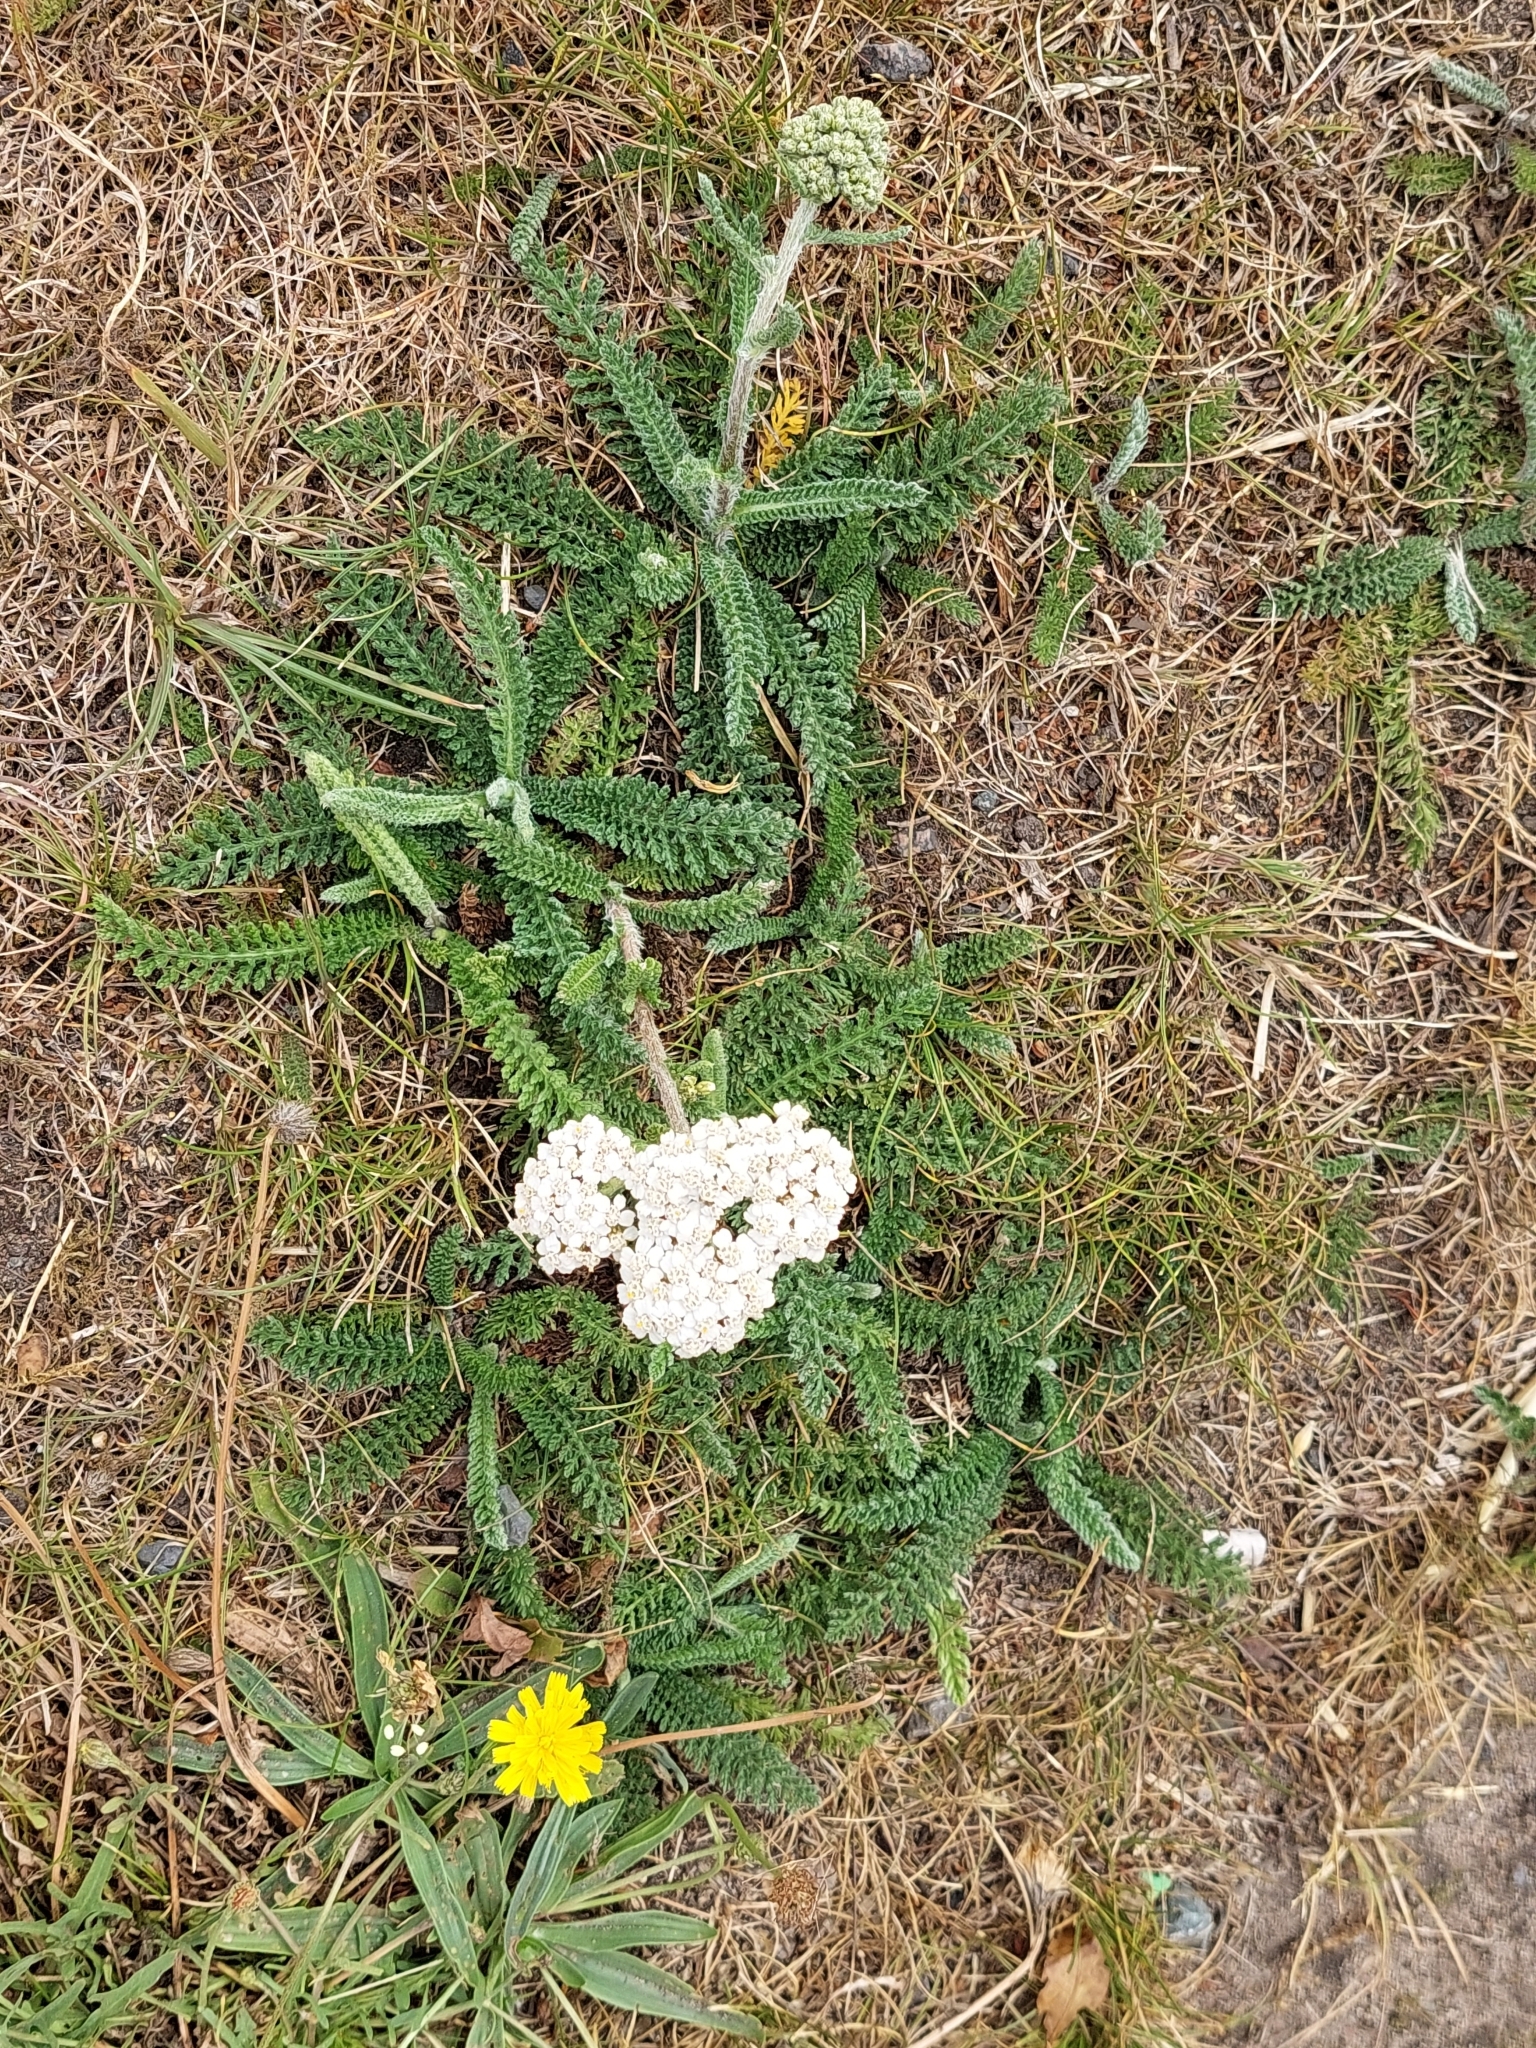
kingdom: Plantae
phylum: Tracheophyta
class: Magnoliopsida
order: Asterales
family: Asteraceae
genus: Achillea
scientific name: Achillea millefolium
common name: Yarrow
